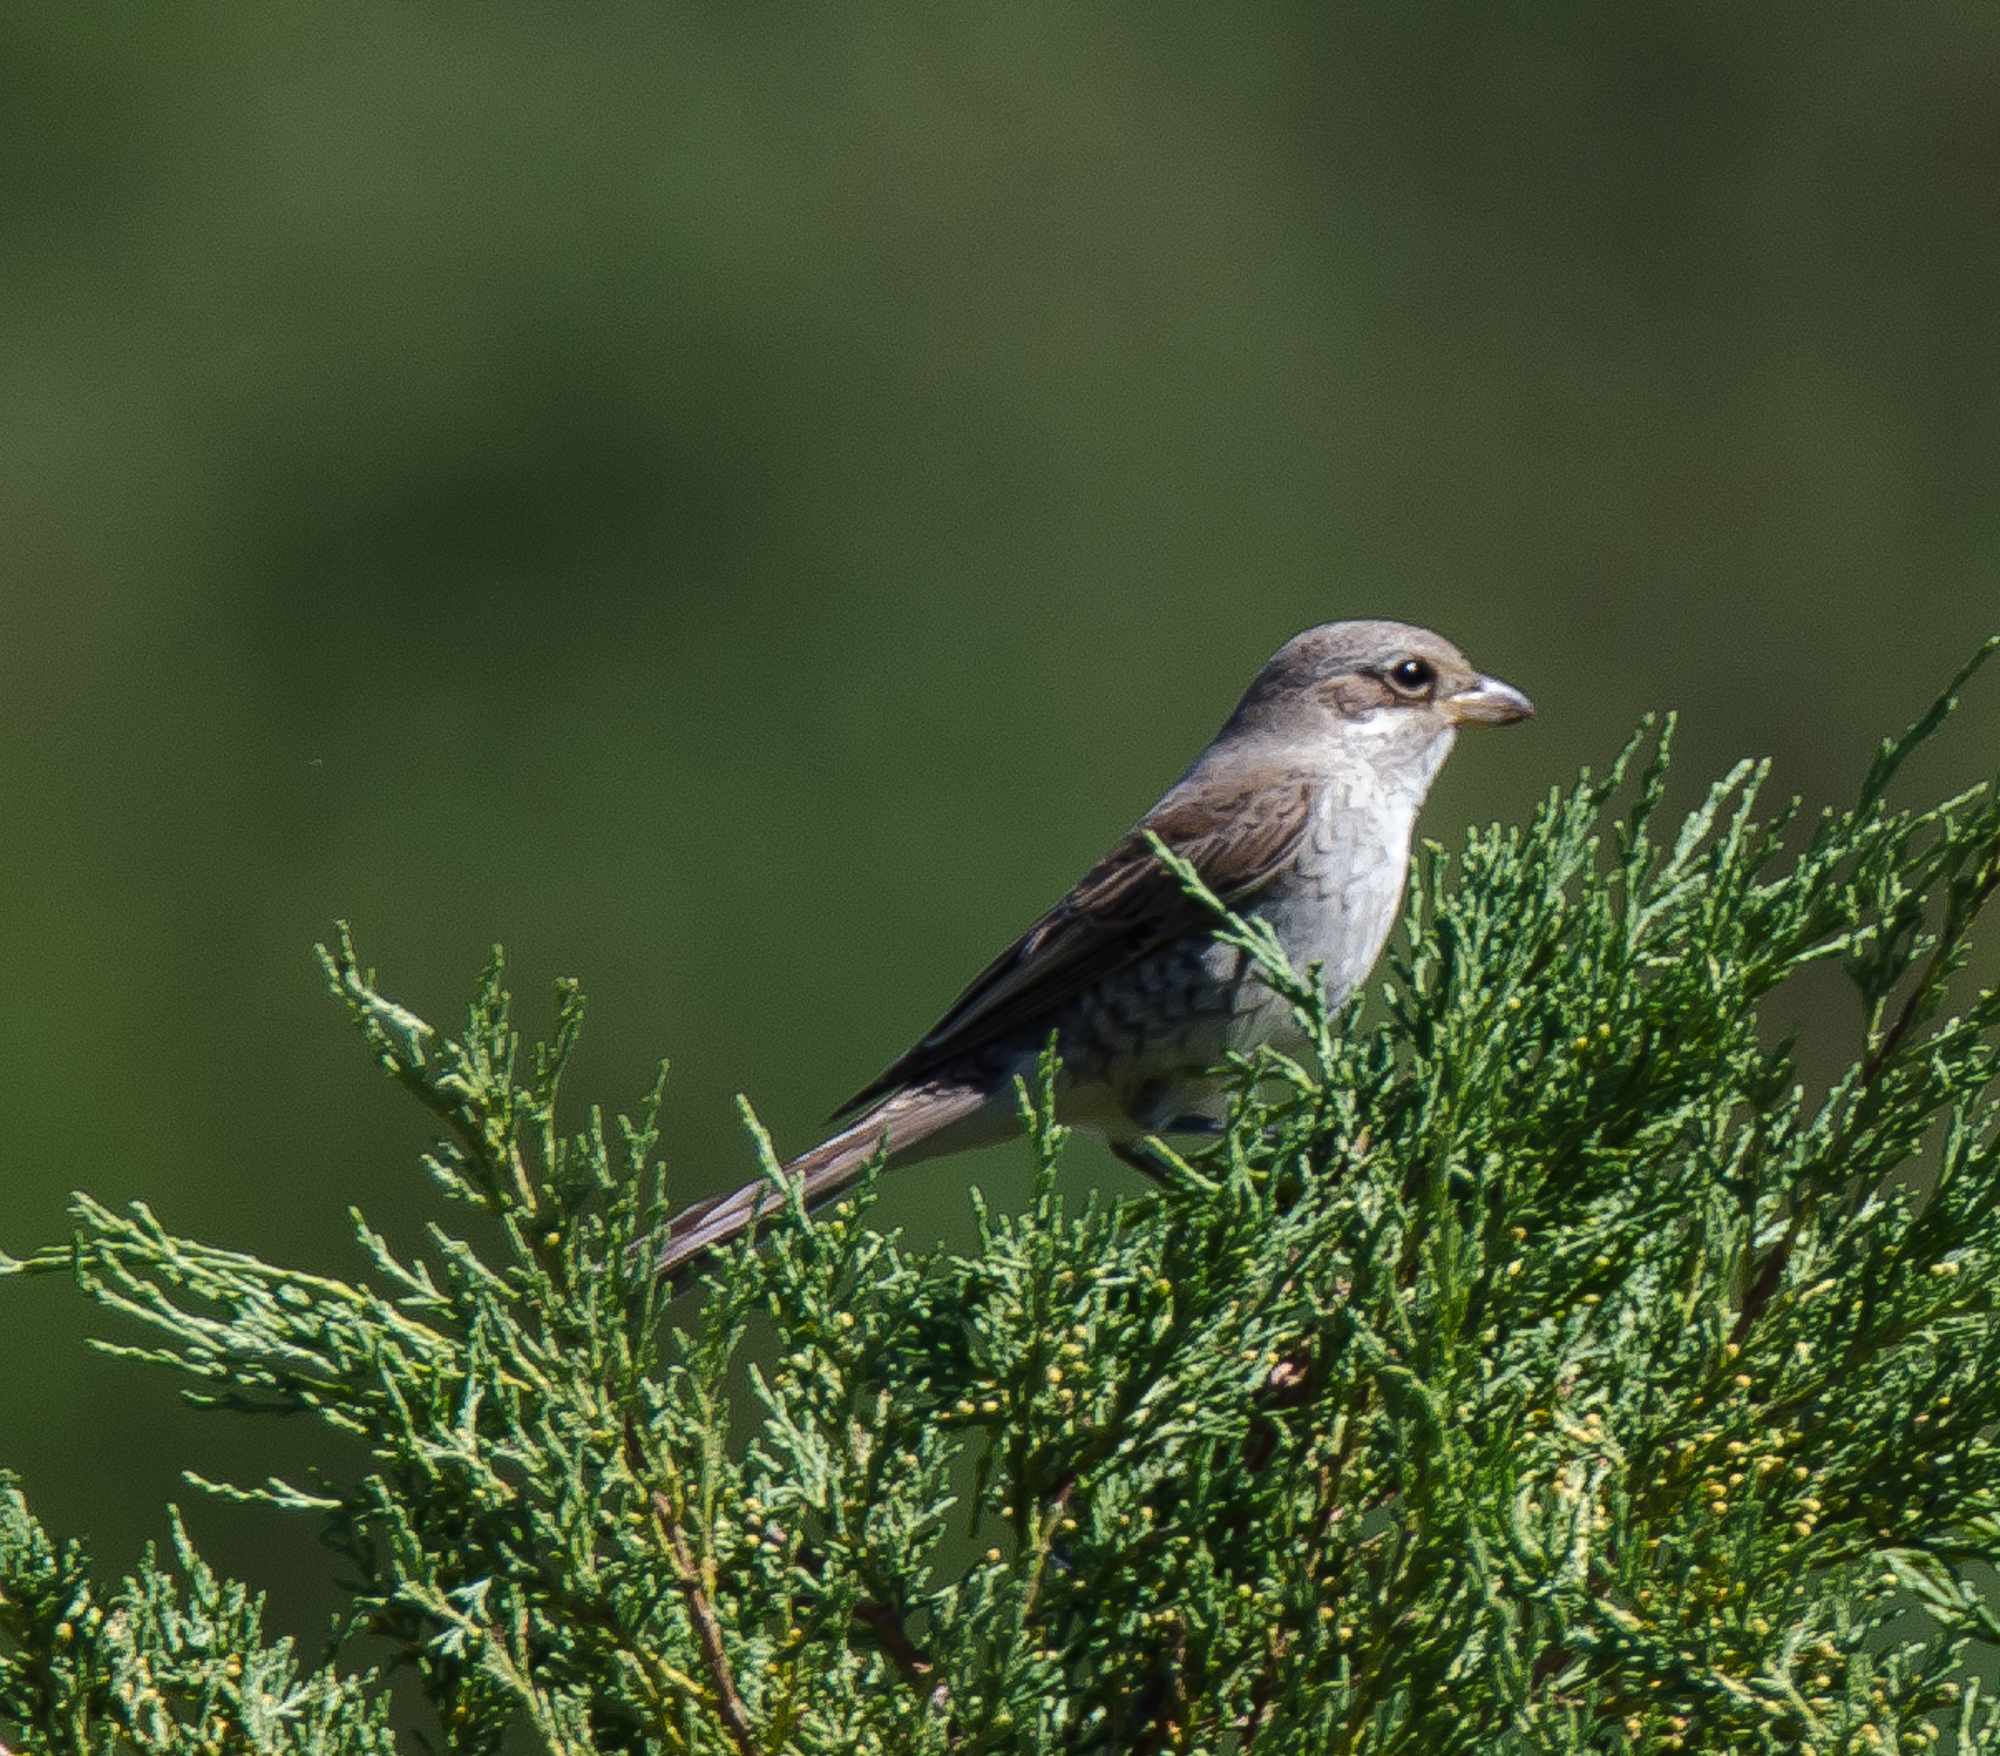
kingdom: Animalia
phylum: Chordata
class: Aves
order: Passeriformes
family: Laniidae
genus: Lanius
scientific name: Lanius collurio
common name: Red-backed shrike
